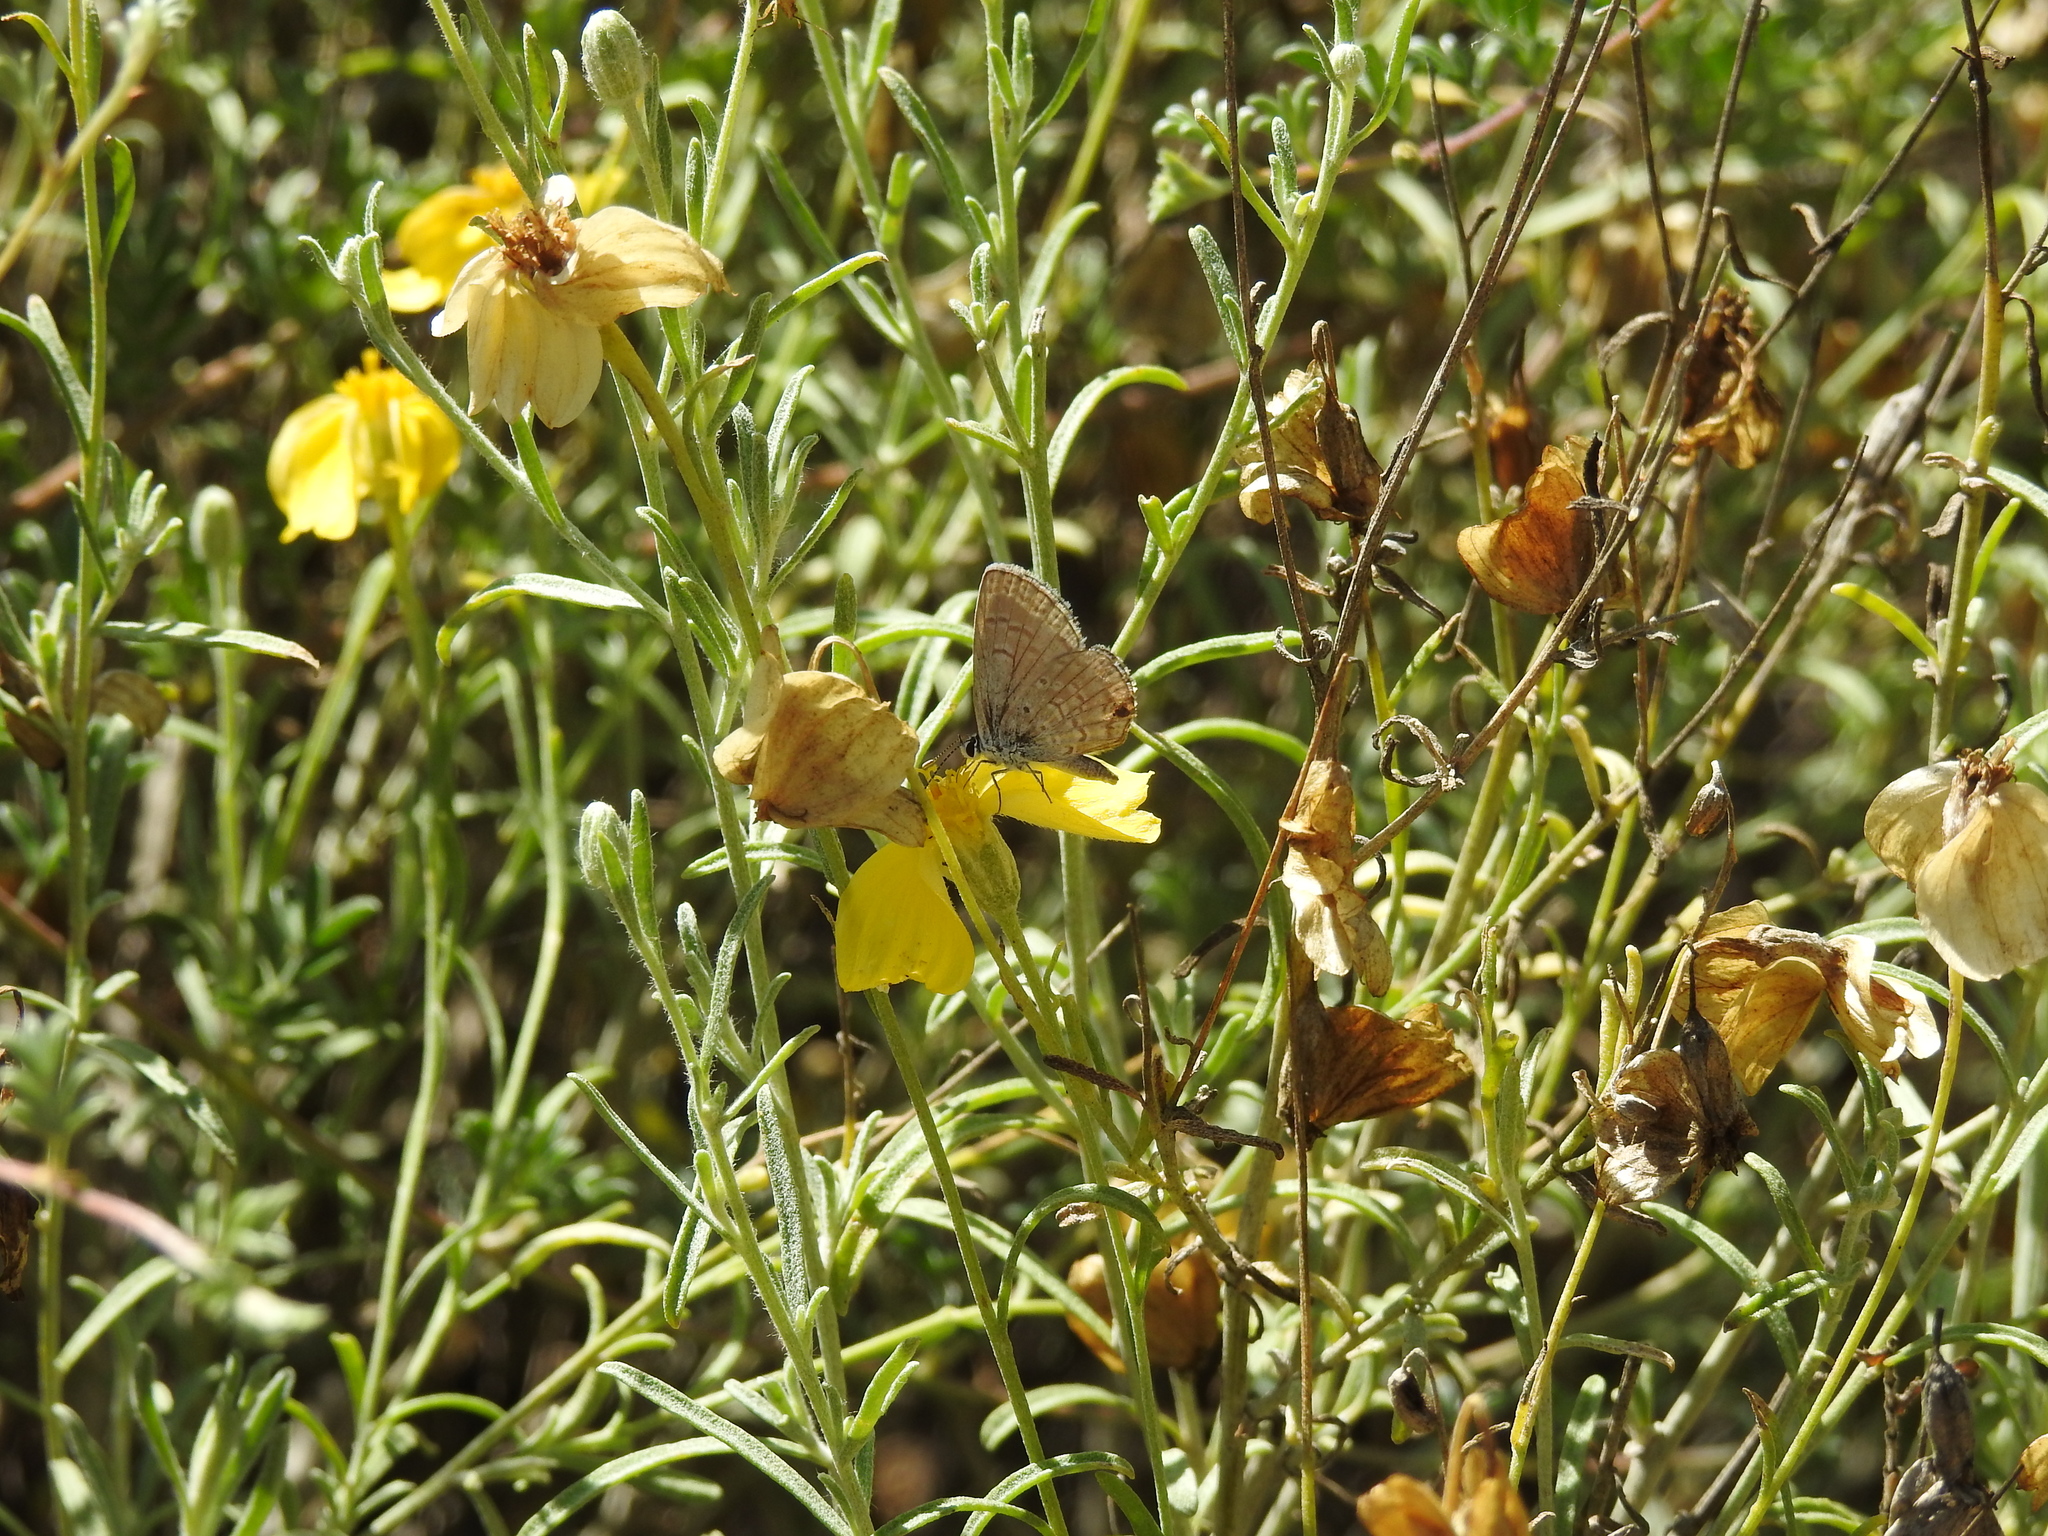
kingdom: Animalia
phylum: Arthropoda
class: Insecta
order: Lepidoptera
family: Lycaenidae
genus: Hemiargus
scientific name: Hemiargus ceraunus
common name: Ceraunus blue
